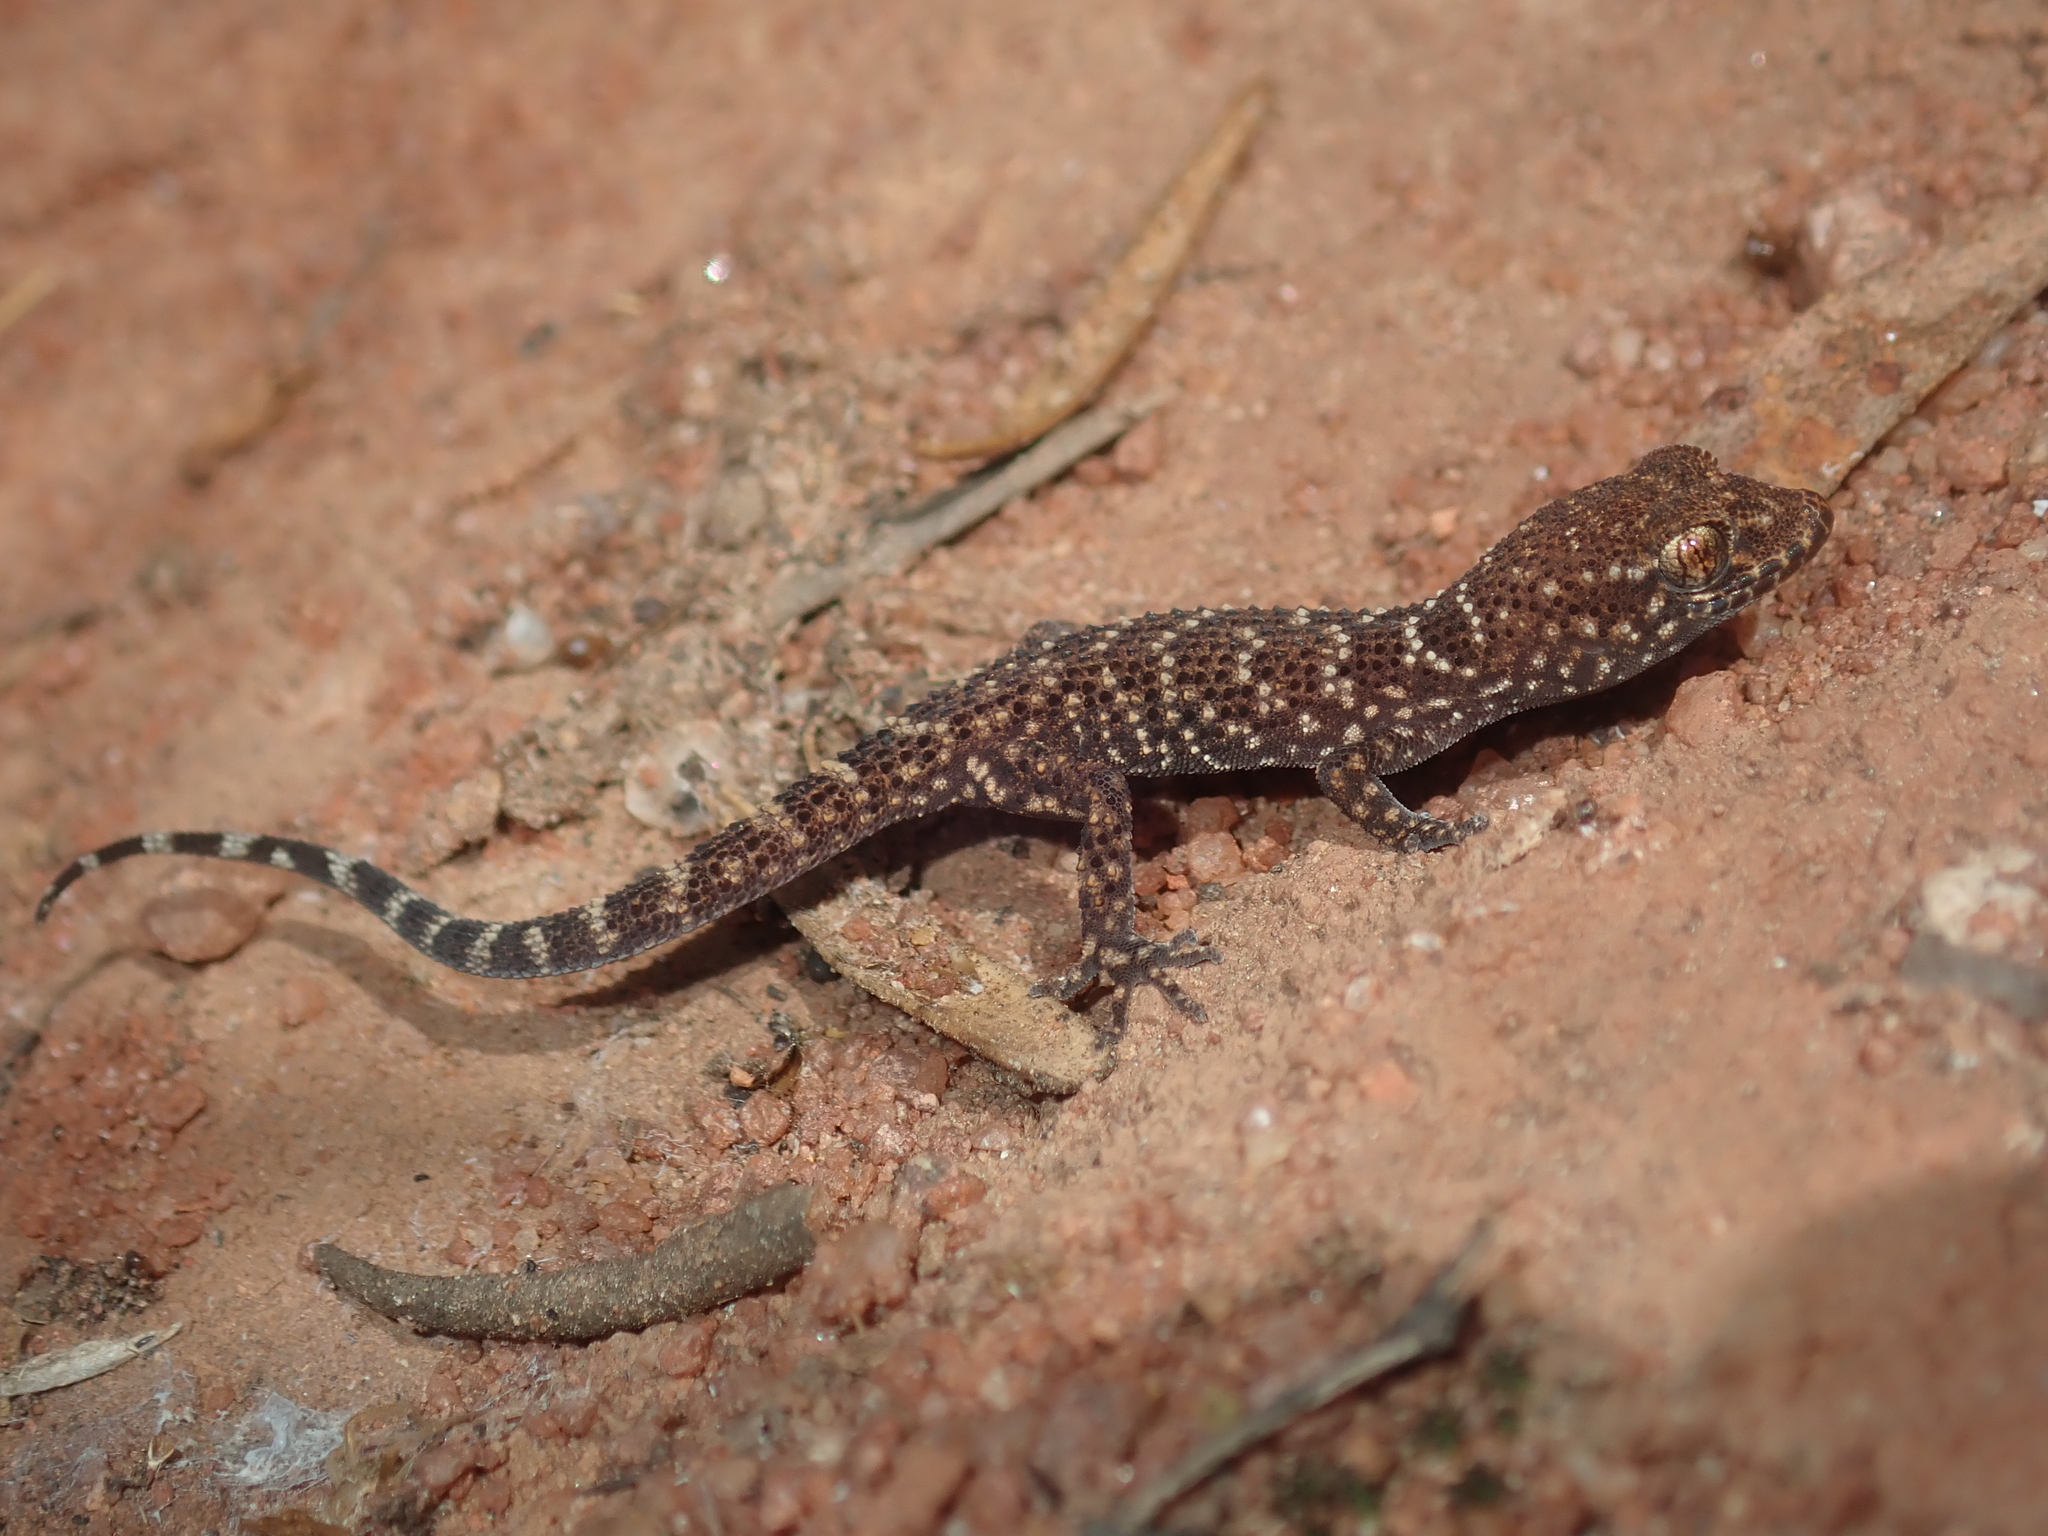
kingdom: Animalia
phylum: Chordata
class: Squamata
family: Gekkonidae
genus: Heteronotia
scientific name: Heteronotia binoei
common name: Bynoe's gecko
